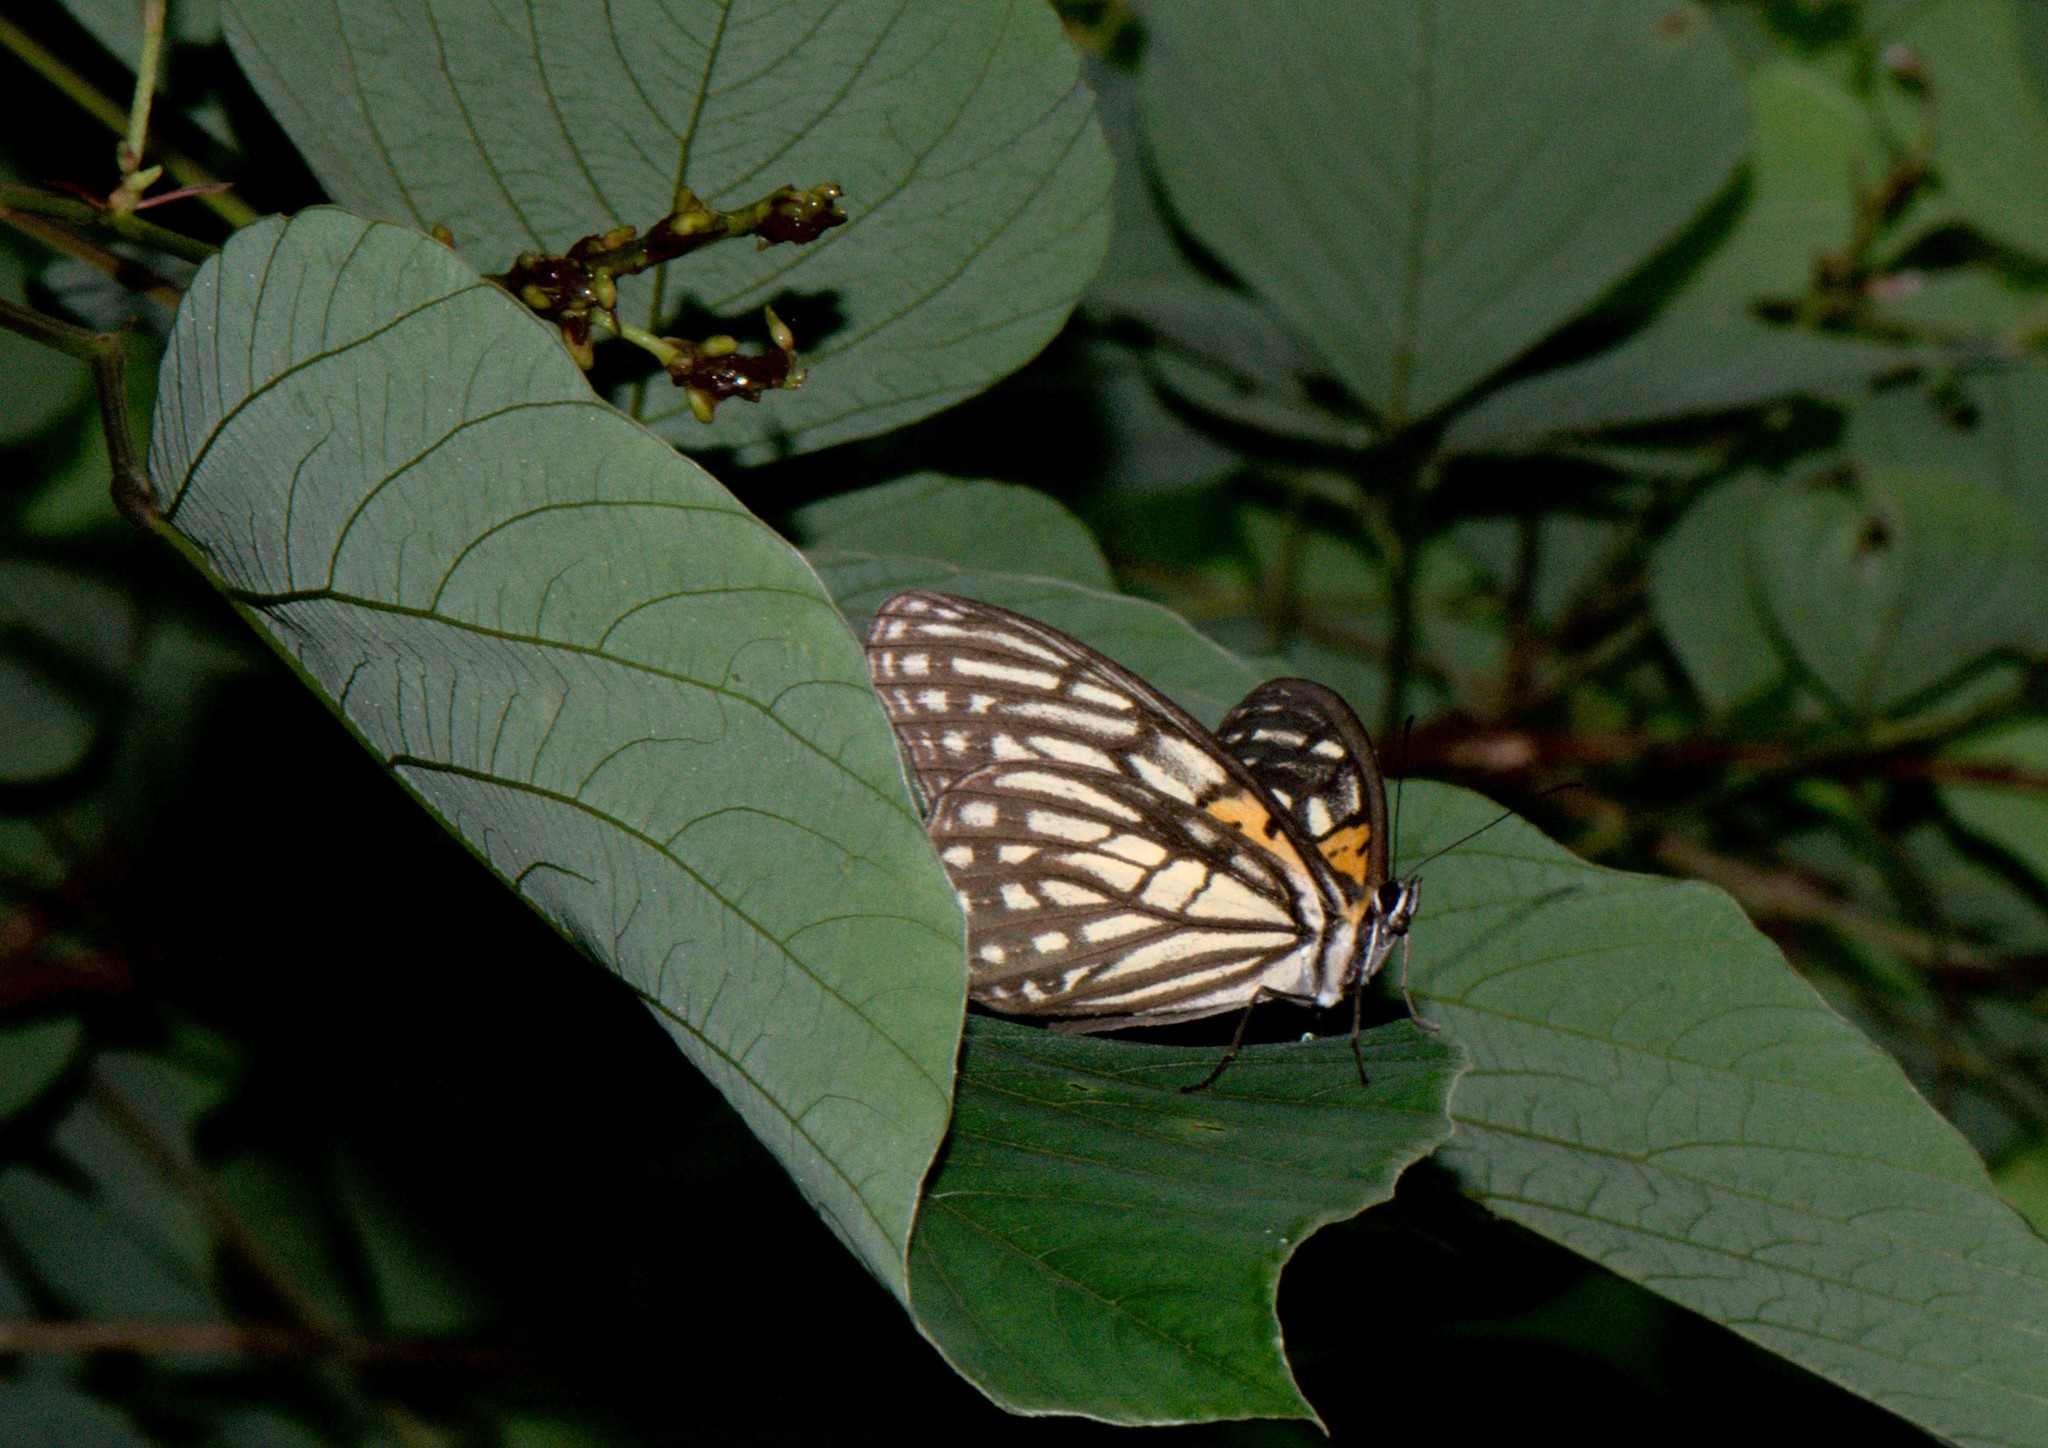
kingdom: Animalia
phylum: Arthropoda
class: Insecta
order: Lepidoptera
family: Nymphalidae
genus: Orinoma
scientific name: Orinoma damaris
